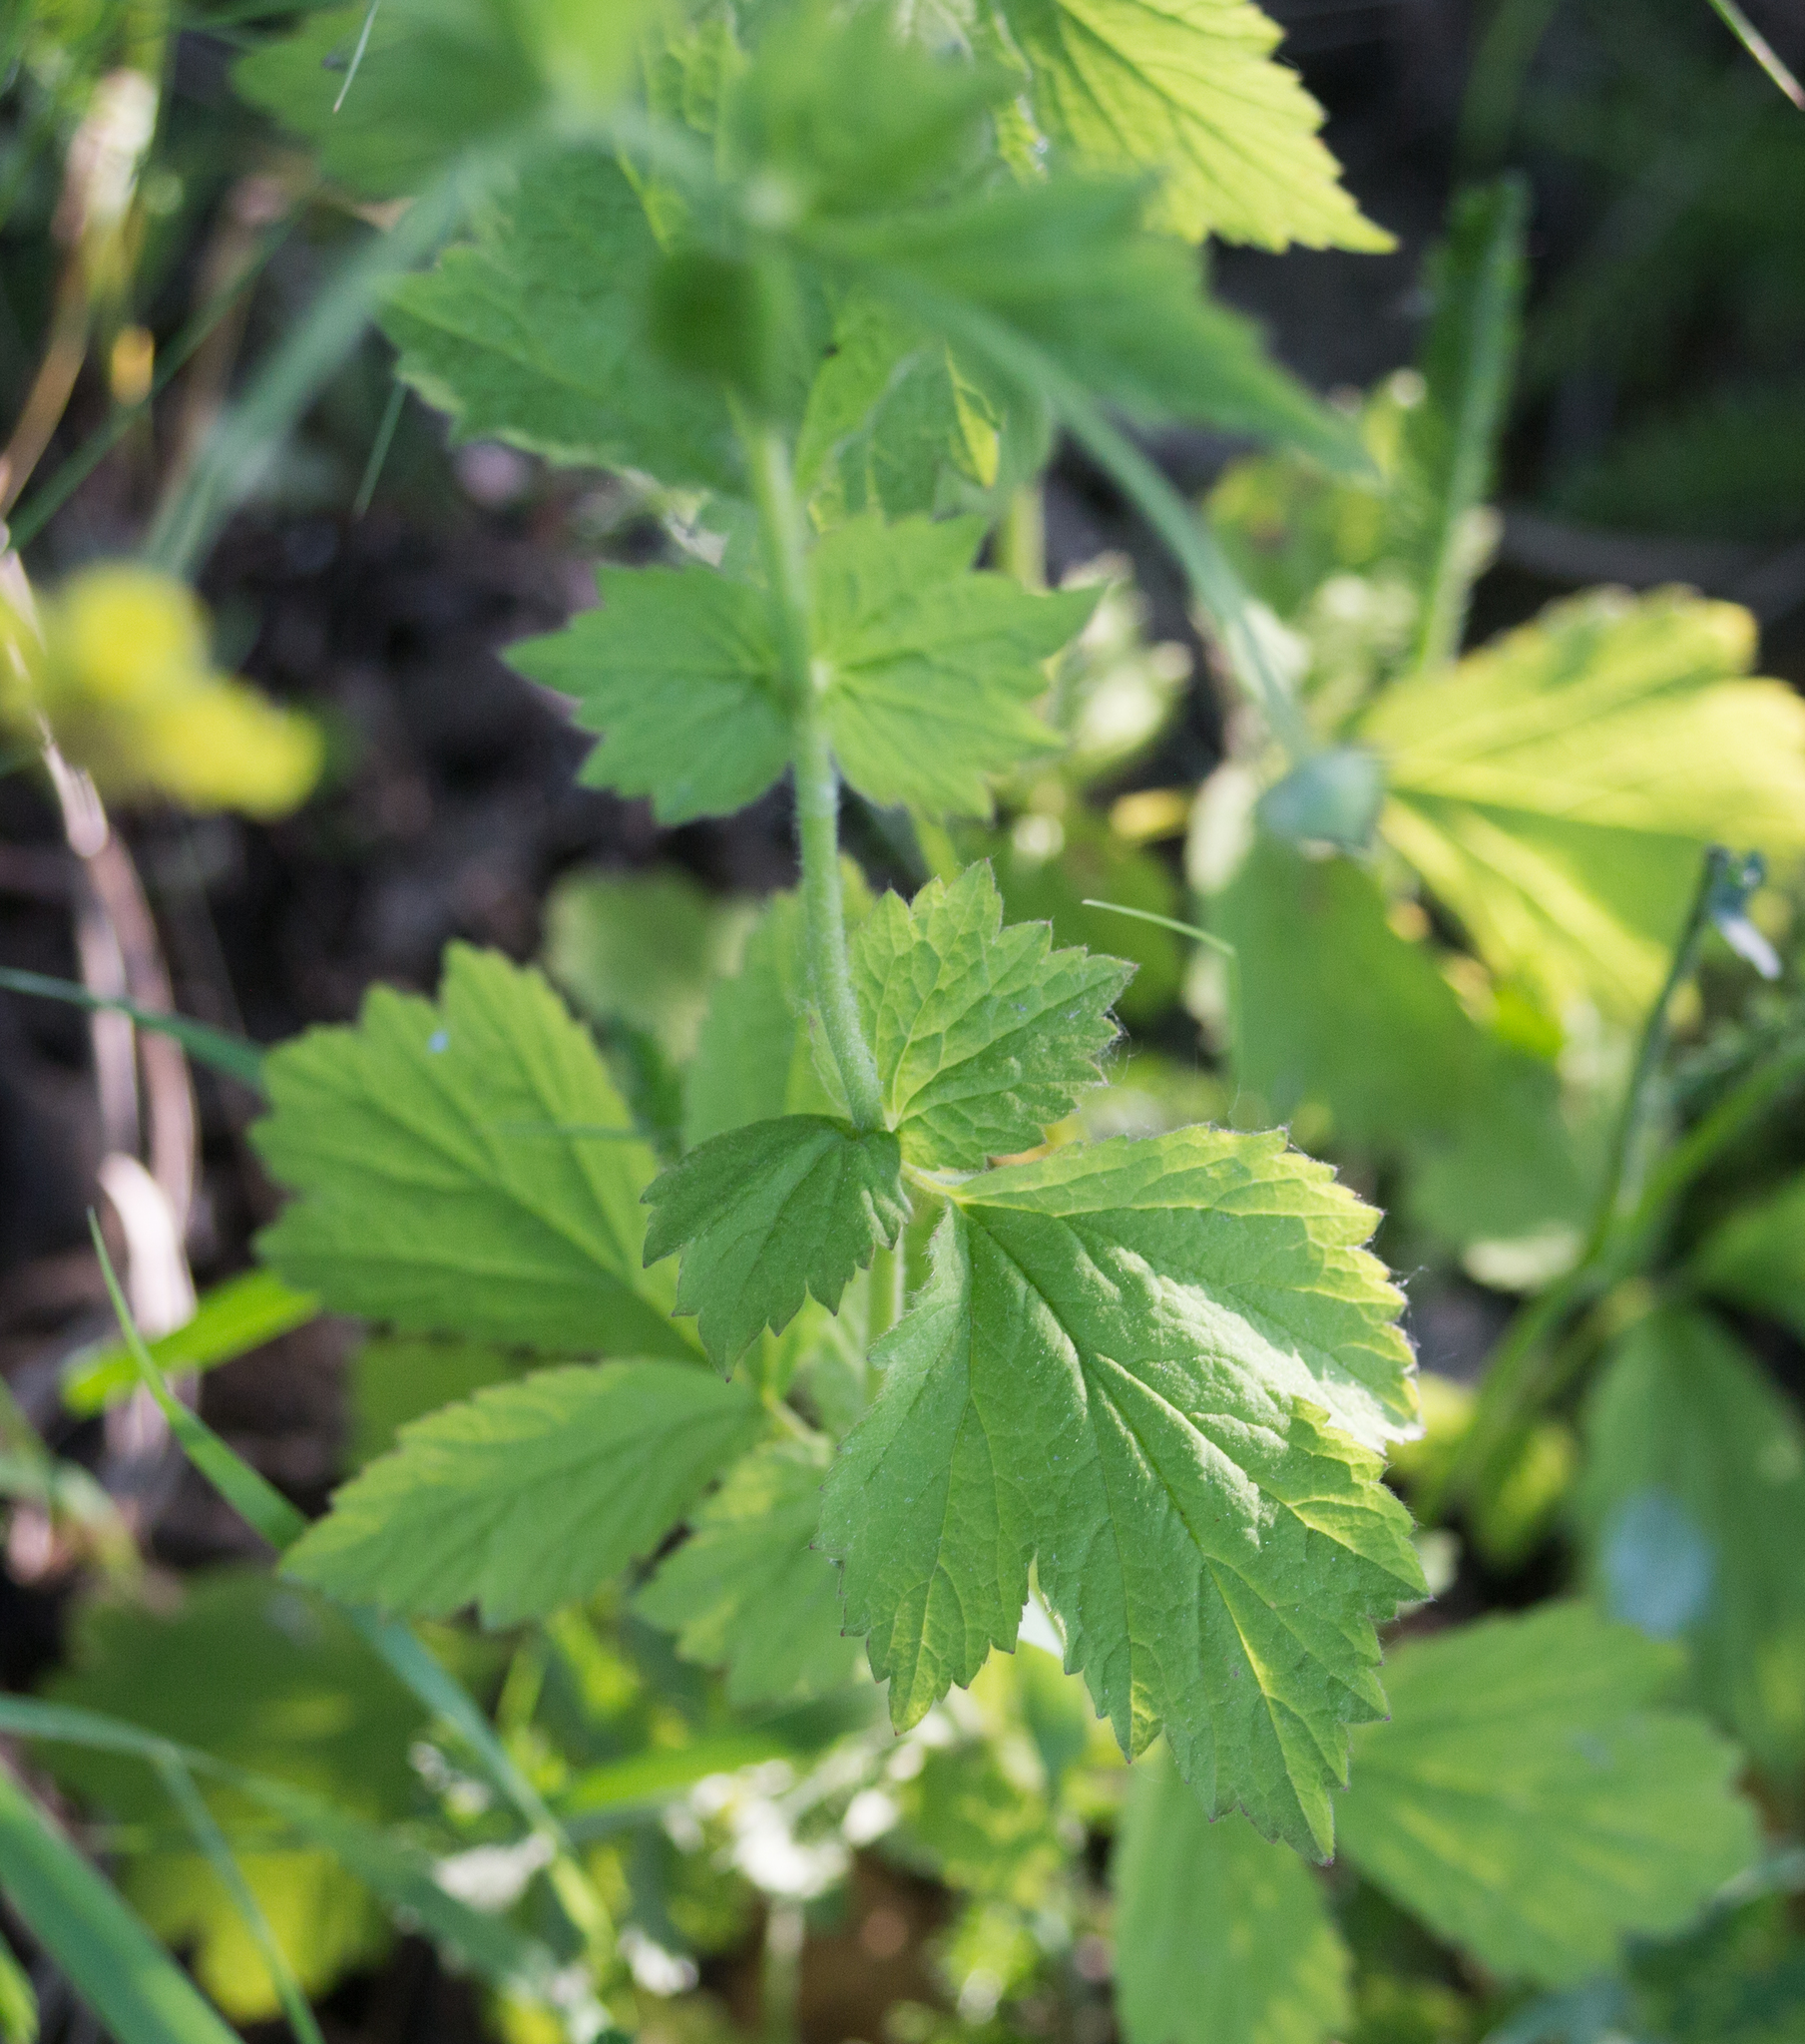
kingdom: Plantae
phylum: Tracheophyta
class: Magnoliopsida
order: Rosales
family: Rosaceae
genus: Geum
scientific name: Geum urbanum
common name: Wood avens
